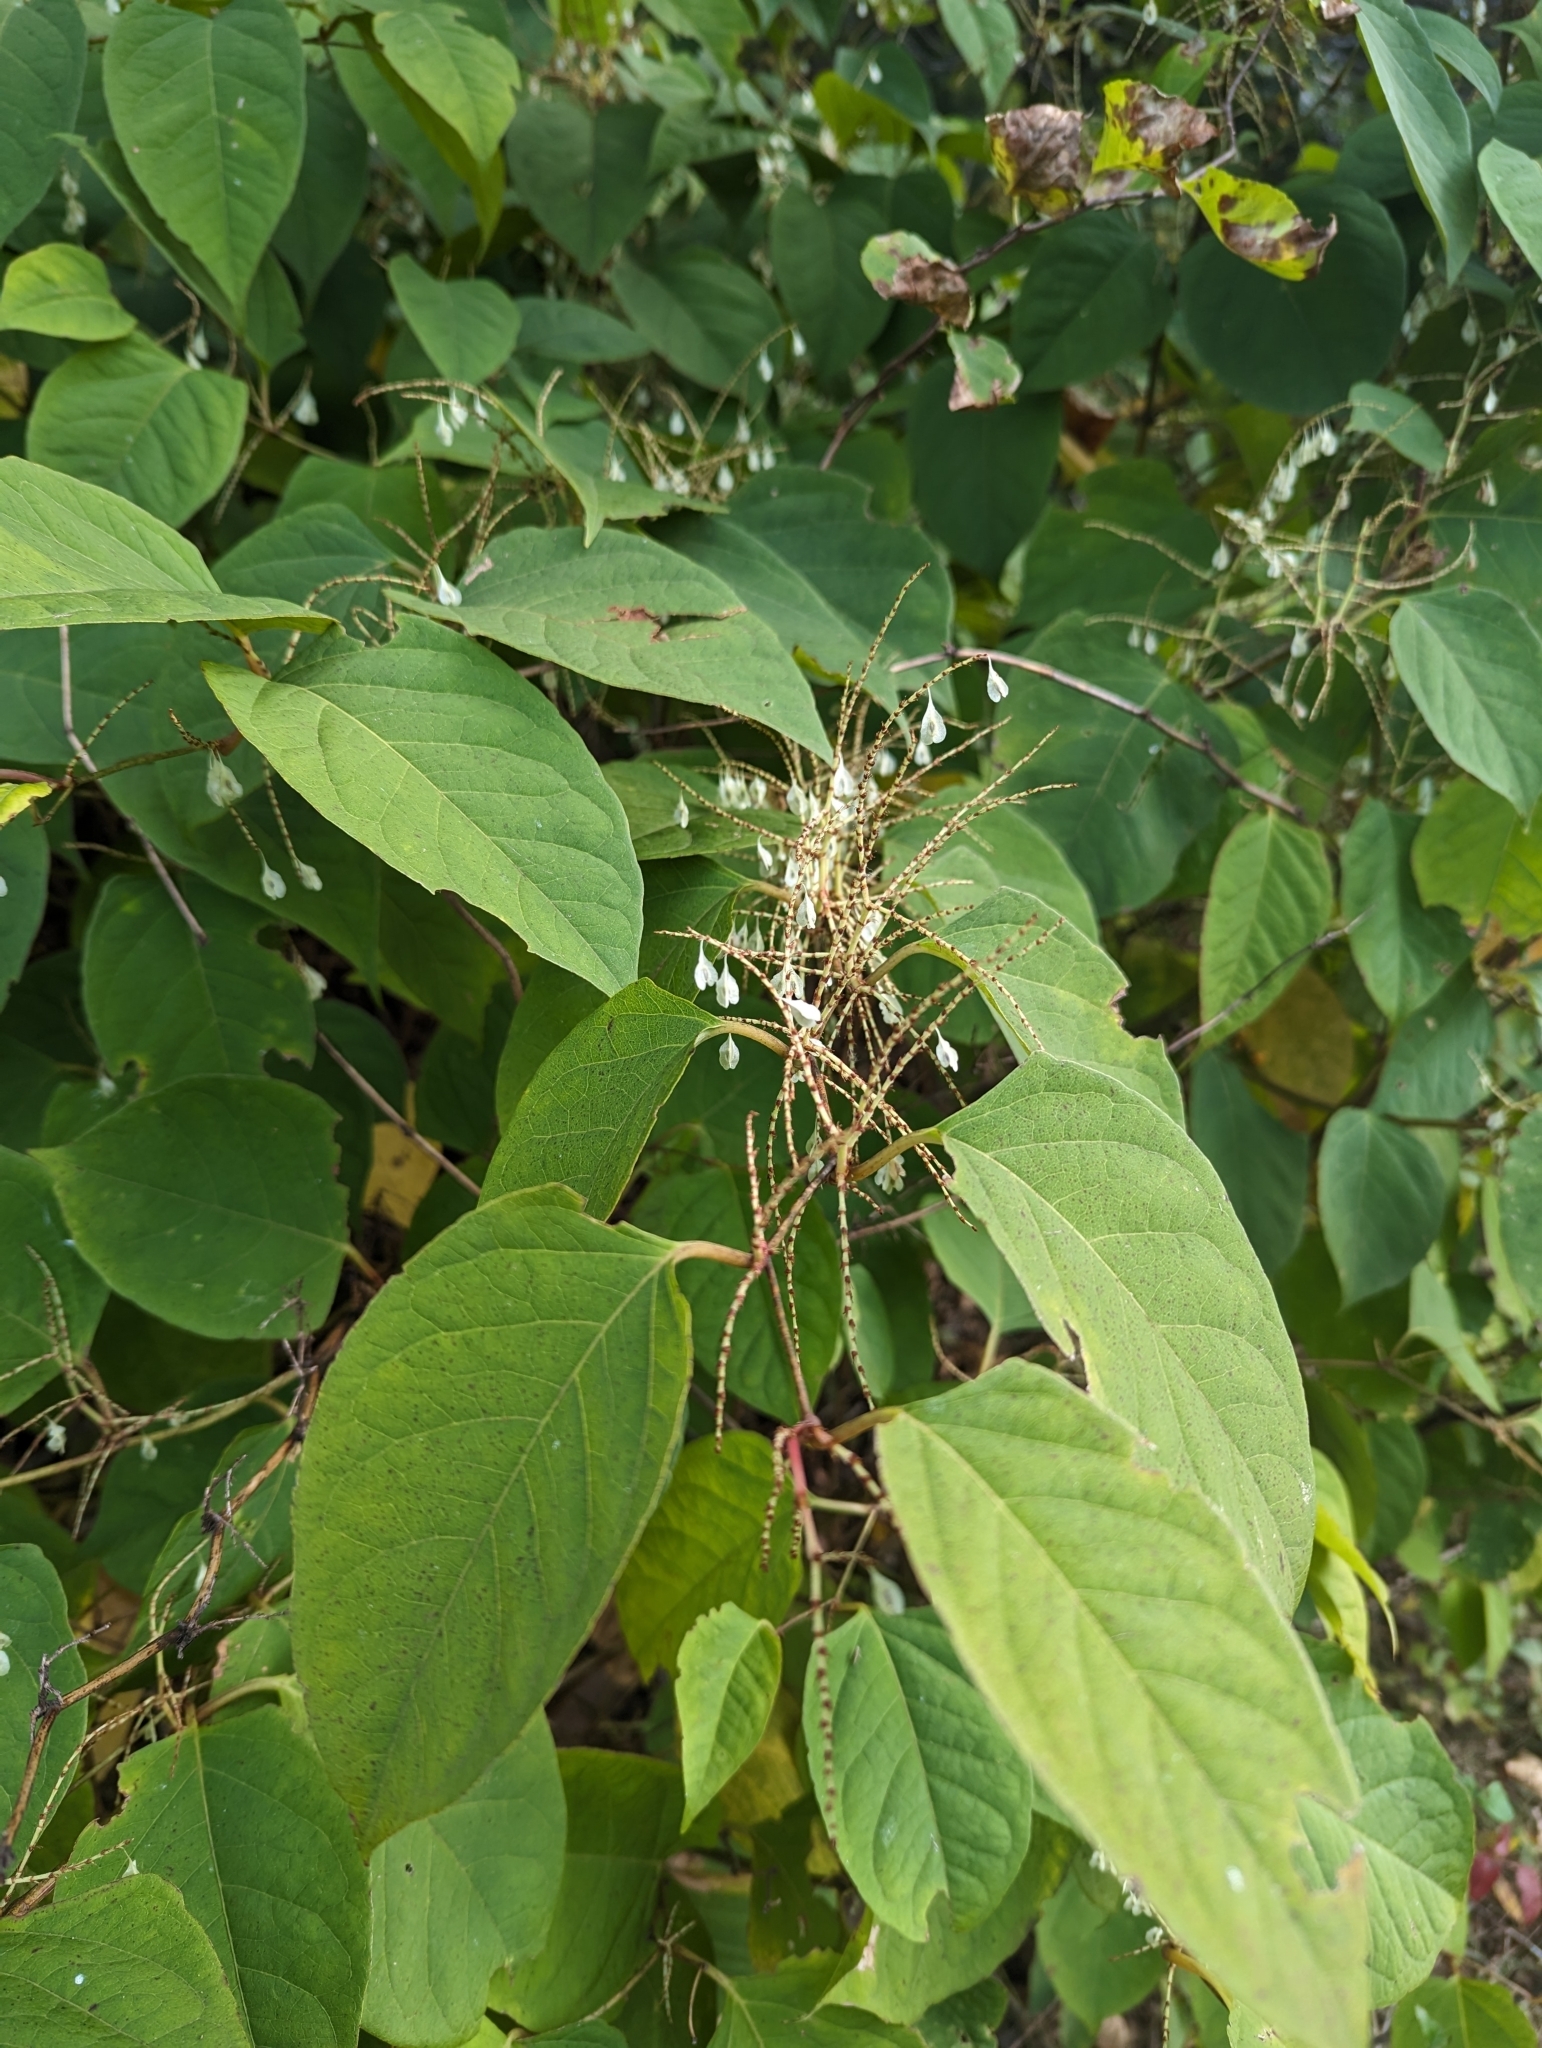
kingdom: Plantae
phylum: Tracheophyta
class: Magnoliopsida
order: Caryophyllales
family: Polygonaceae
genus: Reynoutria
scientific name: Reynoutria japonica
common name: Japanese knotweed
